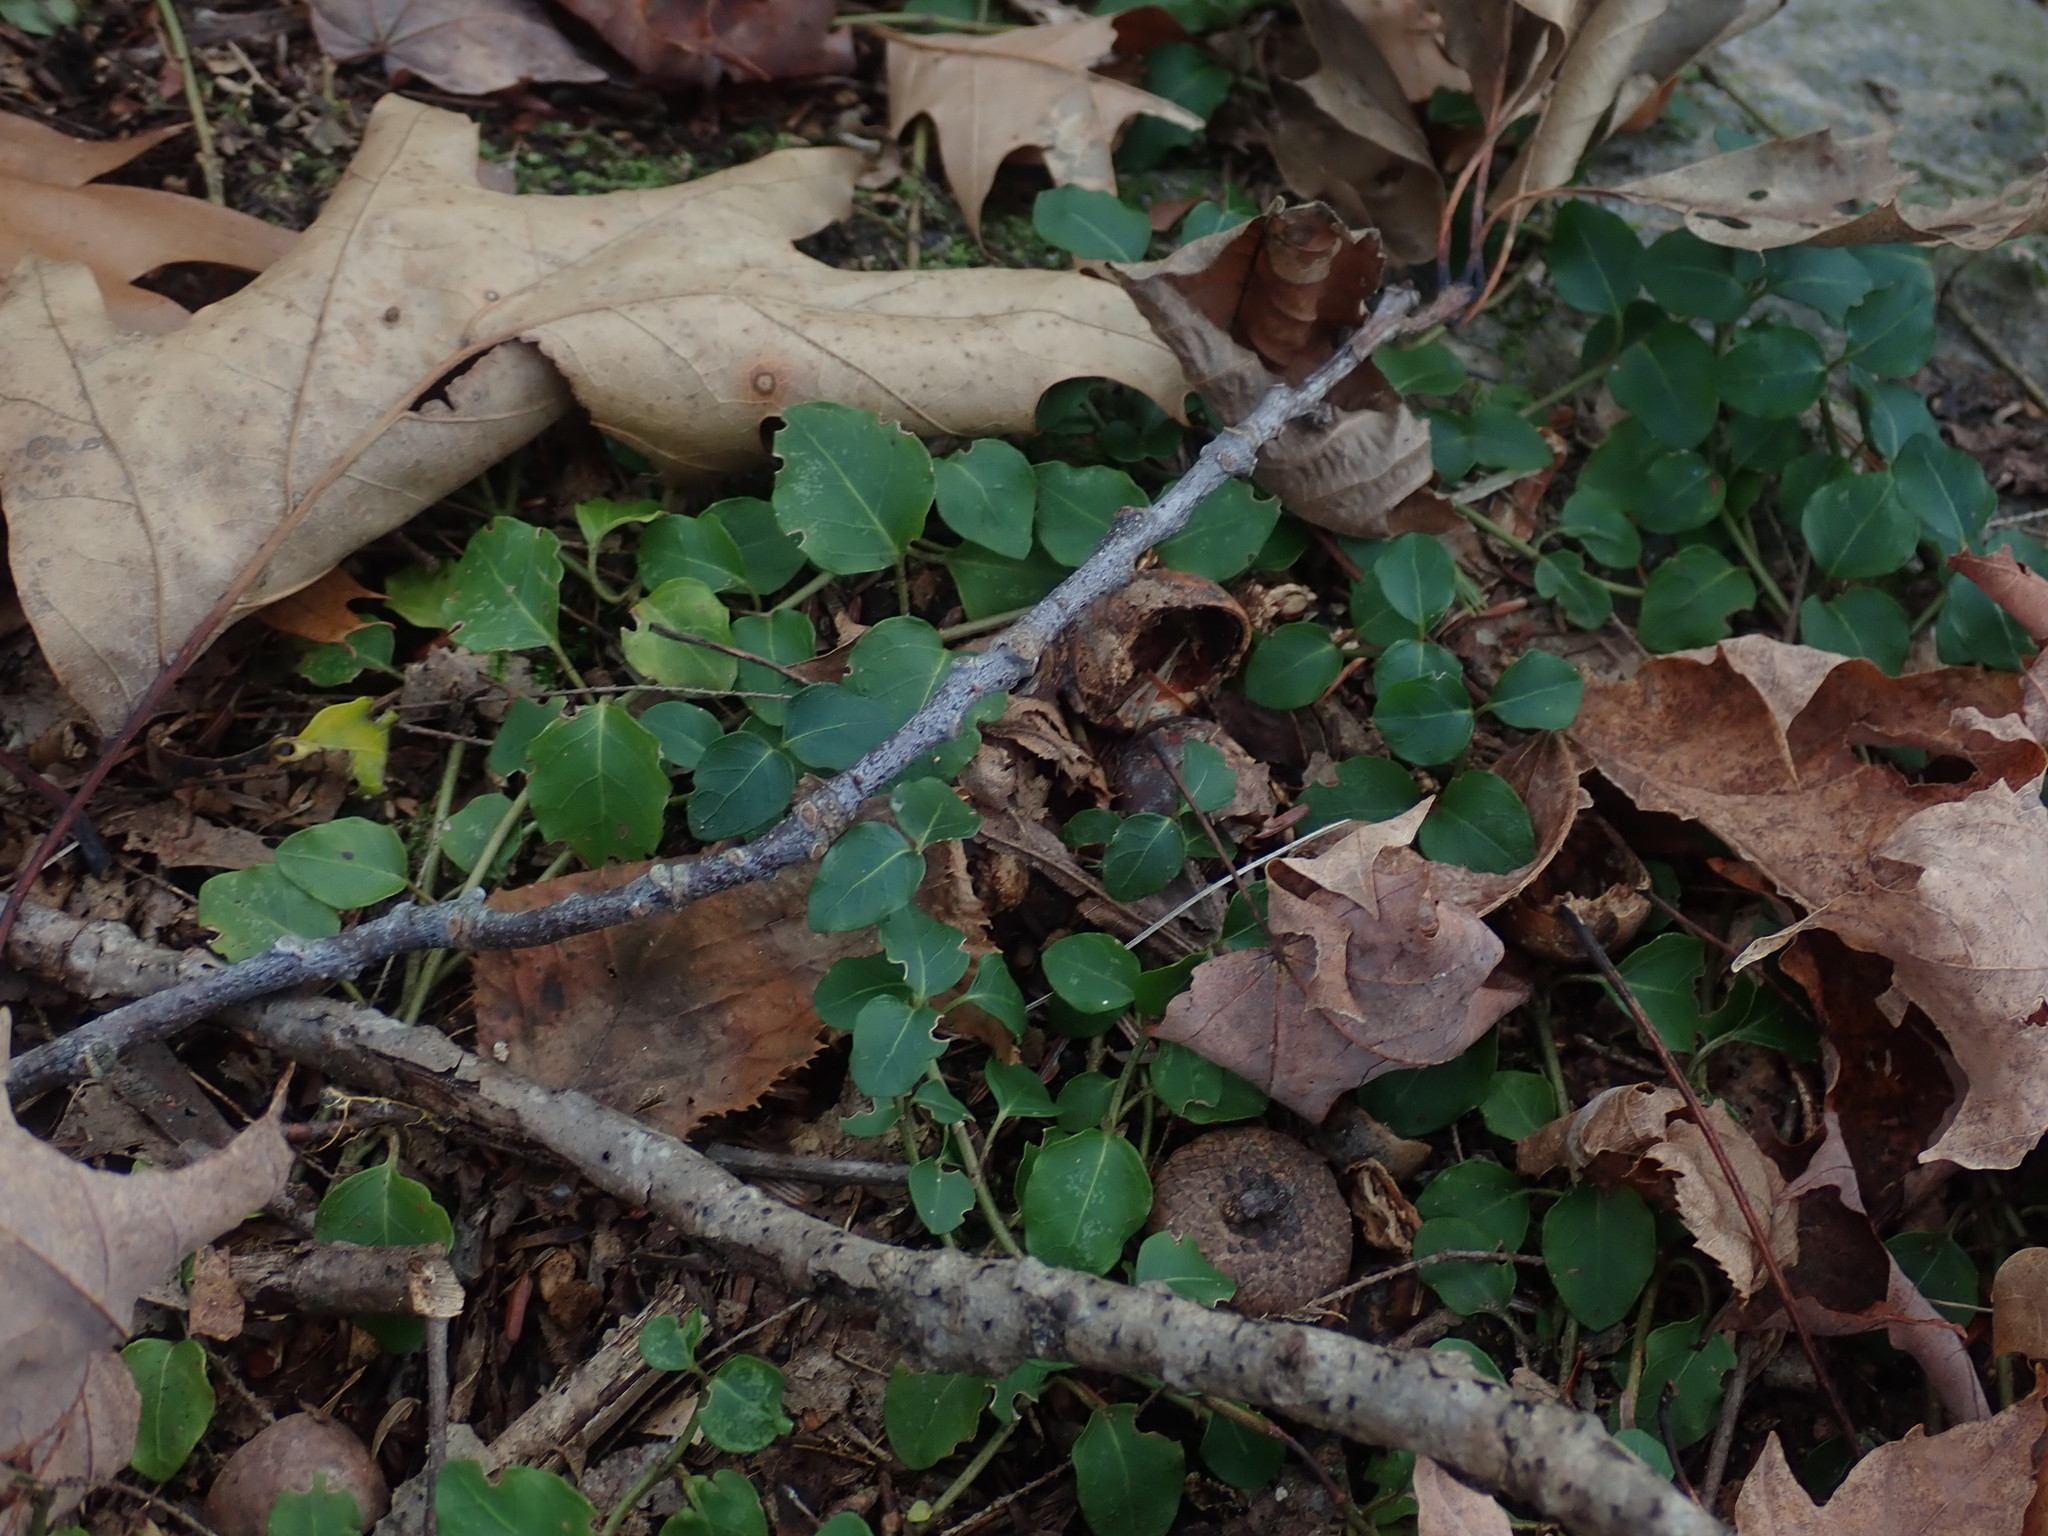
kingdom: Plantae
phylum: Tracheophyta
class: Magnoliopsida
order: Gentianales
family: Rubiaceae
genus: Mitchella
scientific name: Mitchella repens
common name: Partridge-berry
